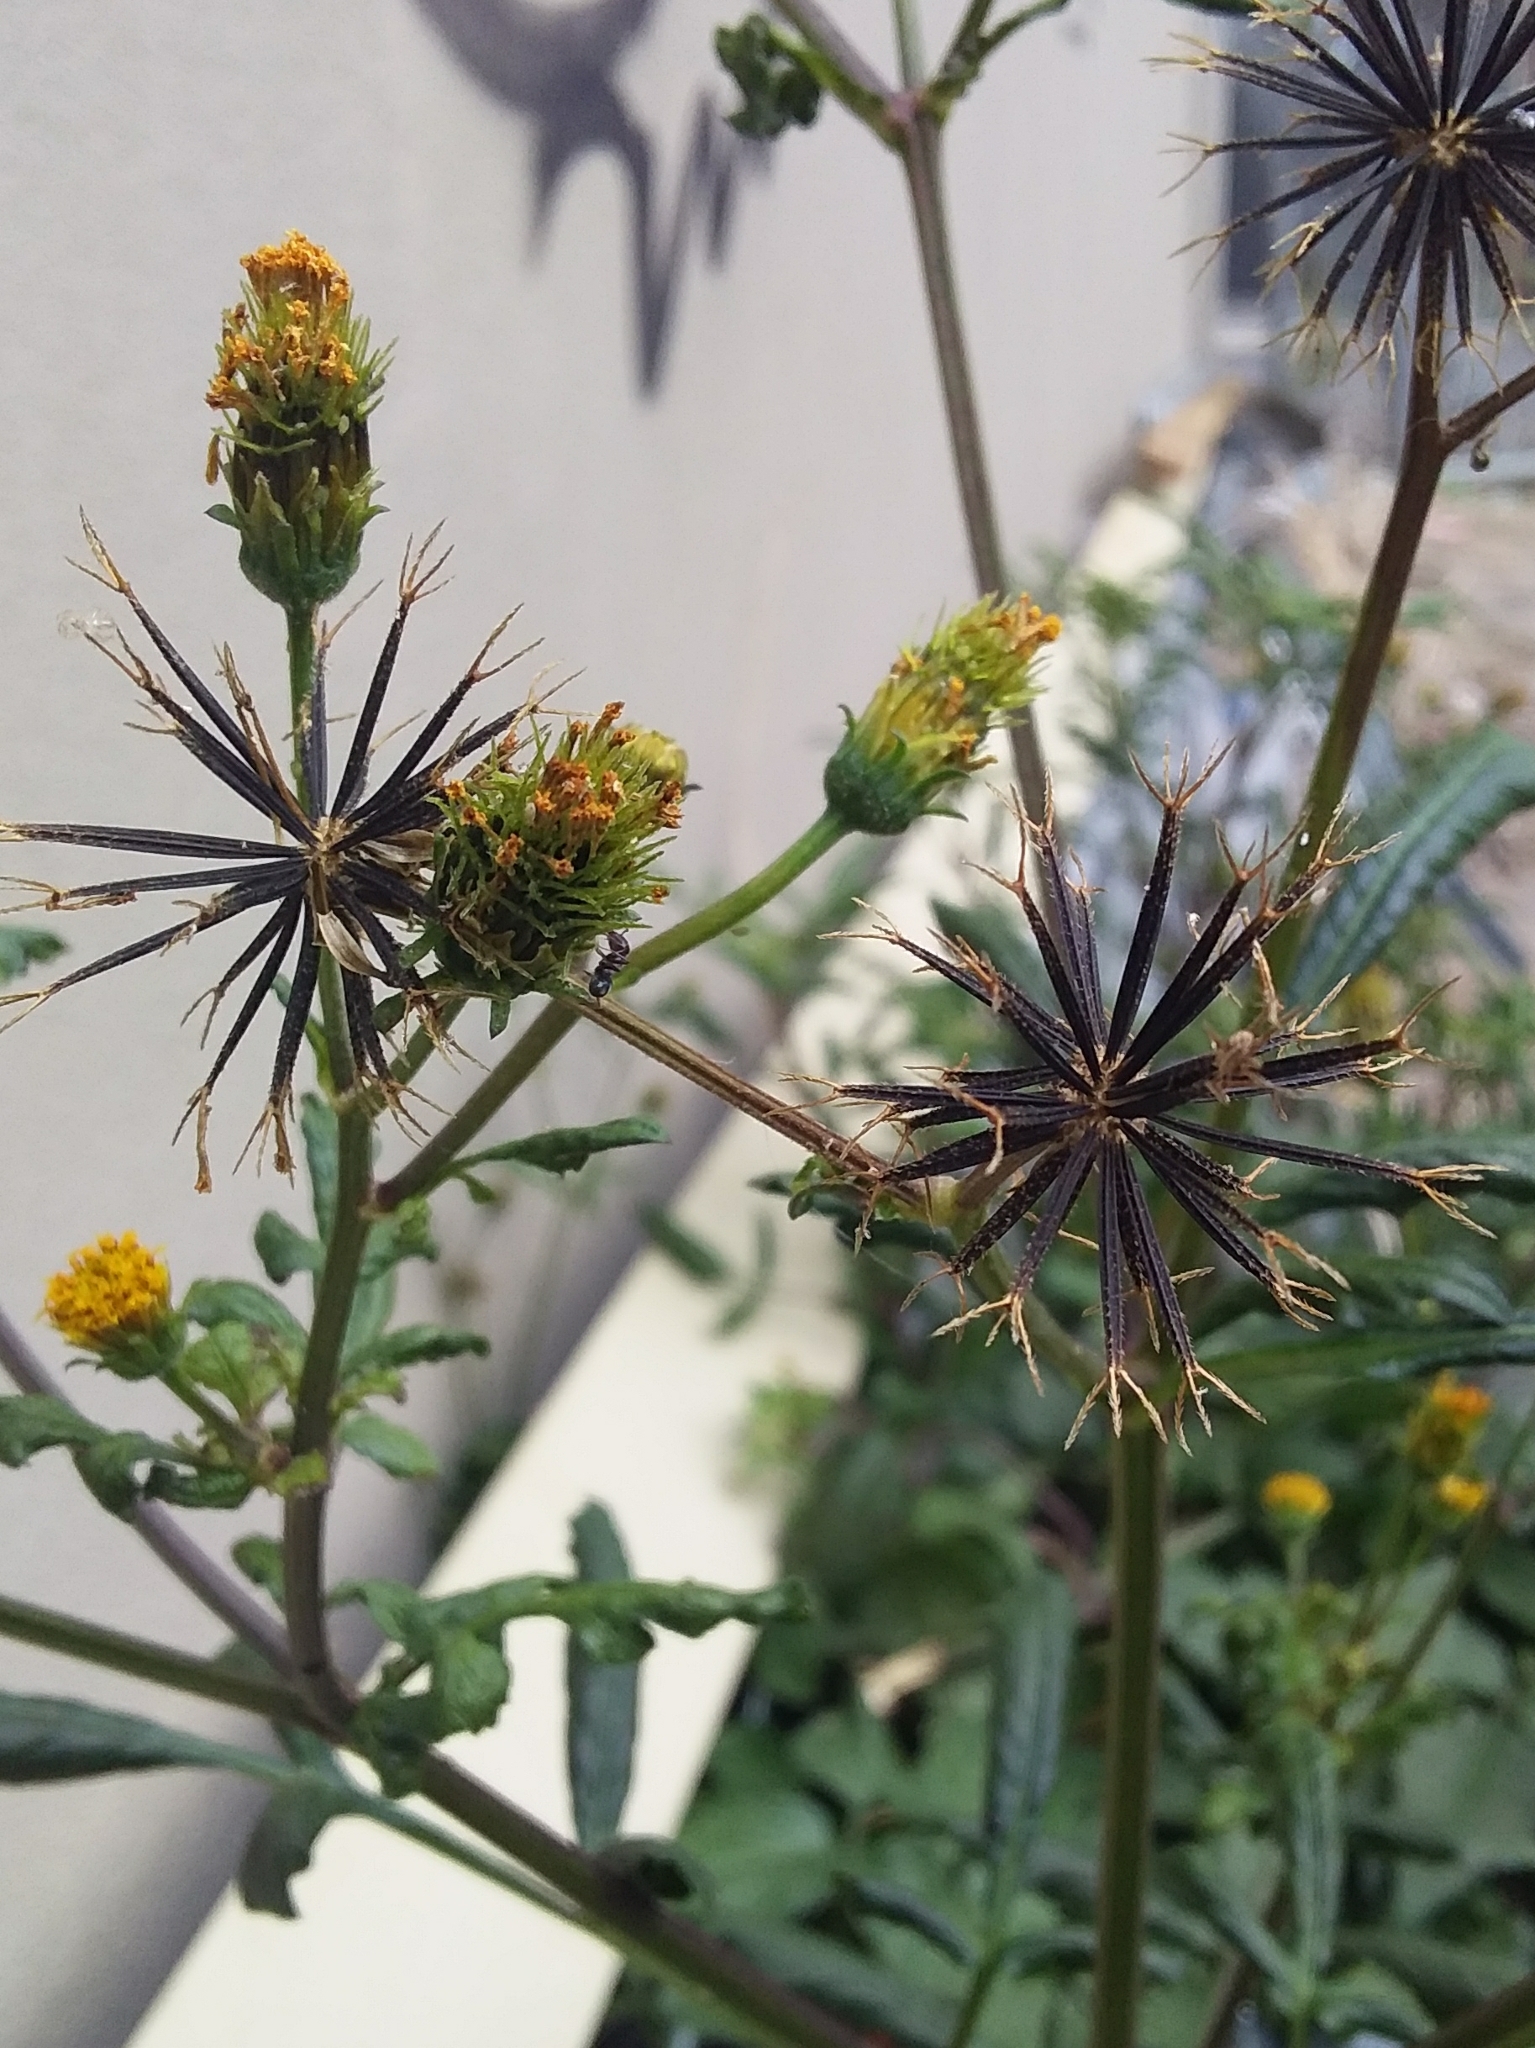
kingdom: Plantae
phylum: Tracheophyta
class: Magnoliopsida
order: Asterales
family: Asteraceae
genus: Bidens
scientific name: Bidens pilosa
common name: Black-jack
